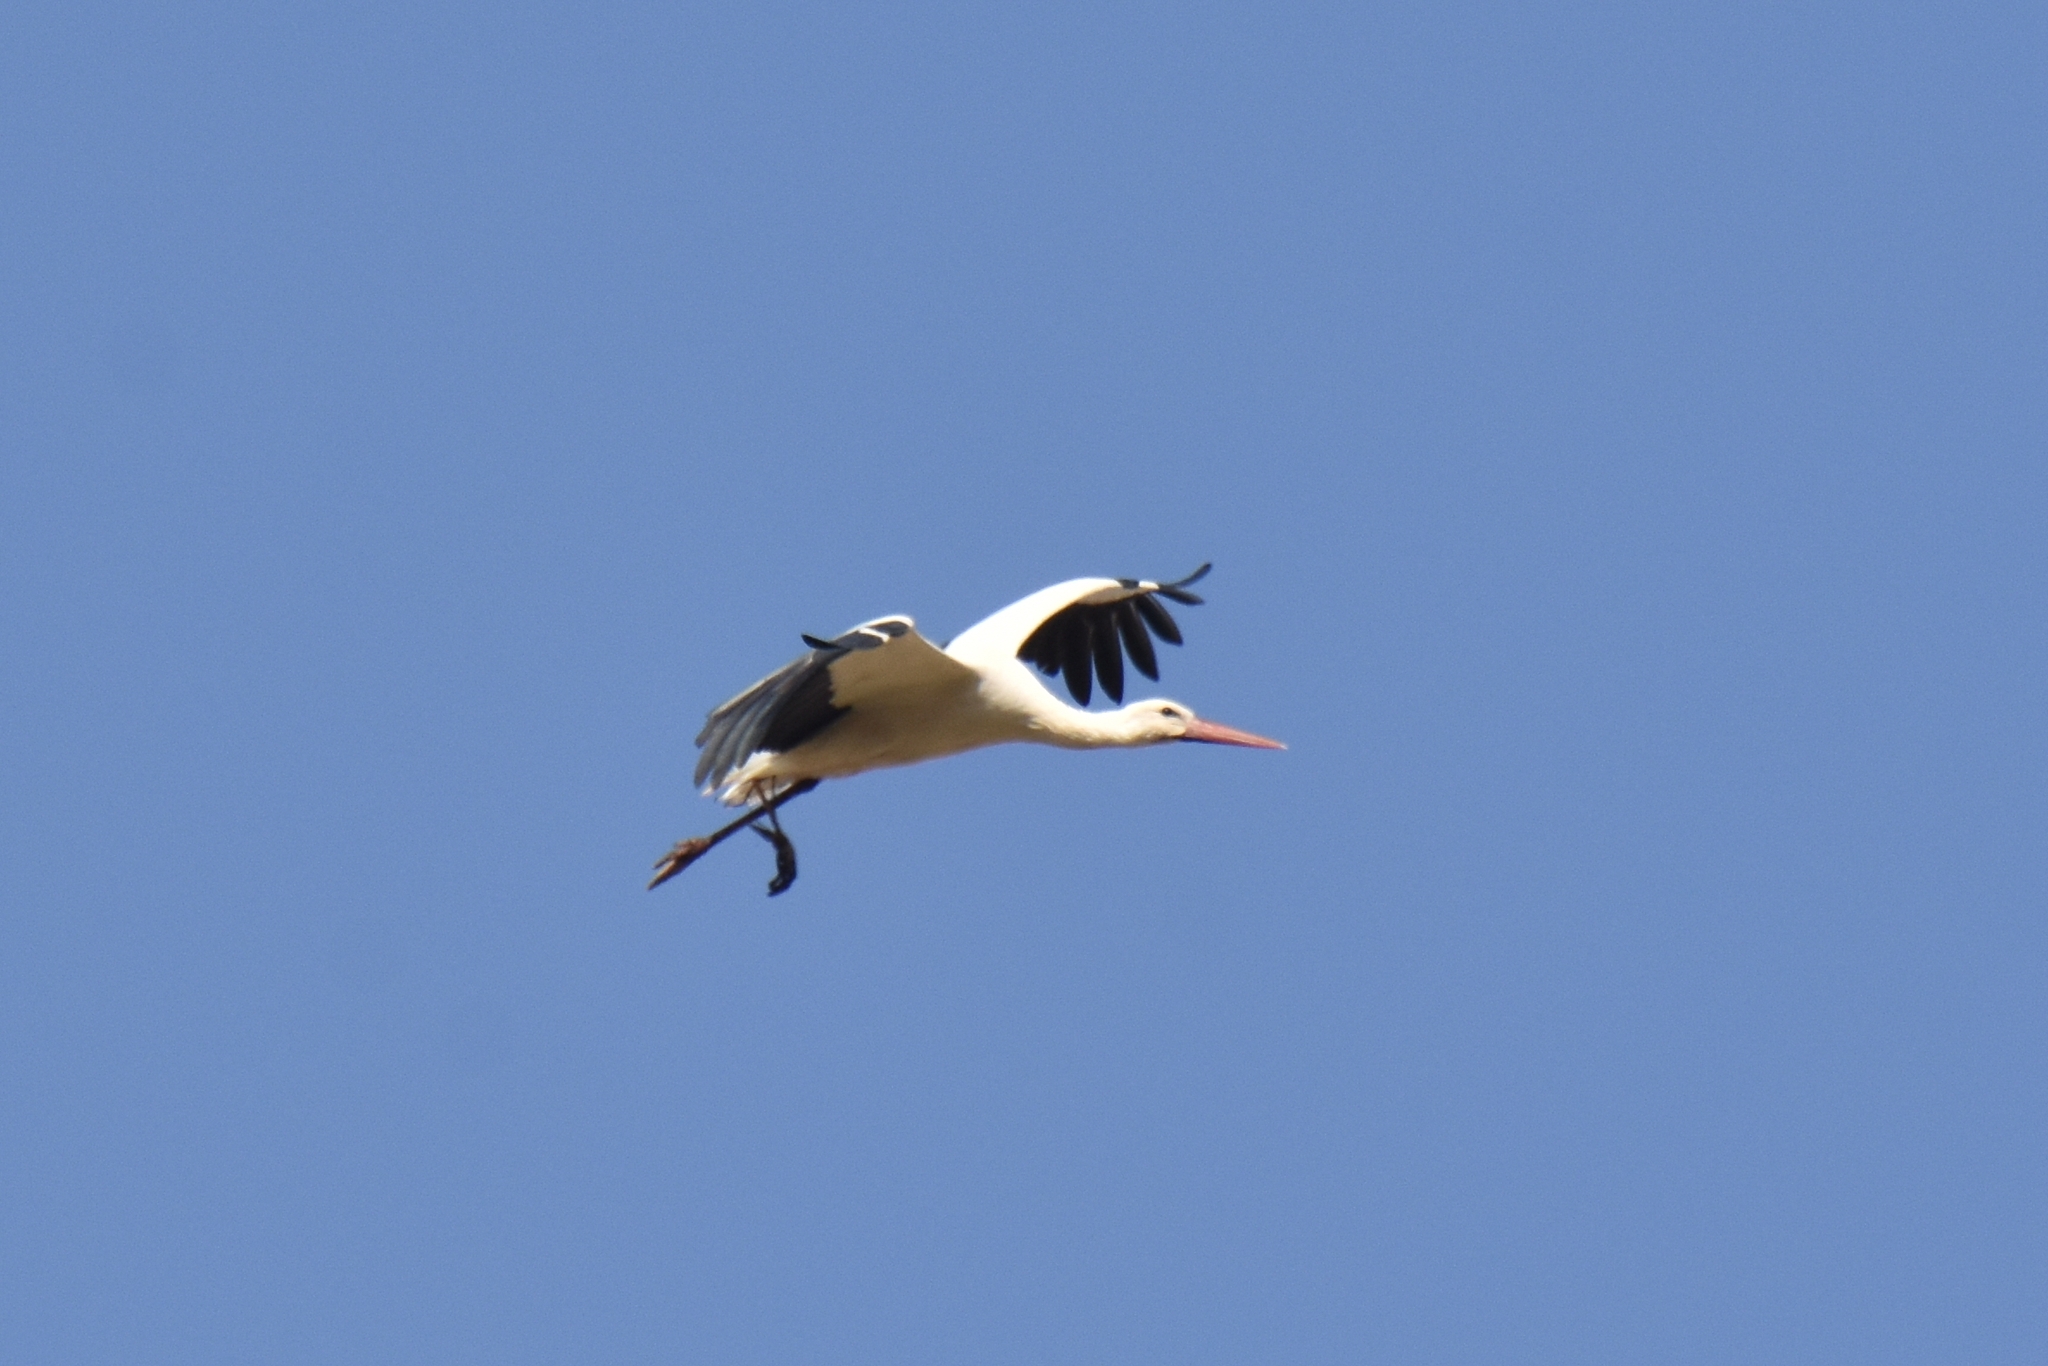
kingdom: Animalia
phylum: Chordata
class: Aves
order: Ciconiiformes
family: Ciconiidae
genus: Ciconia
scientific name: Ciconia ciconia
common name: White stork
